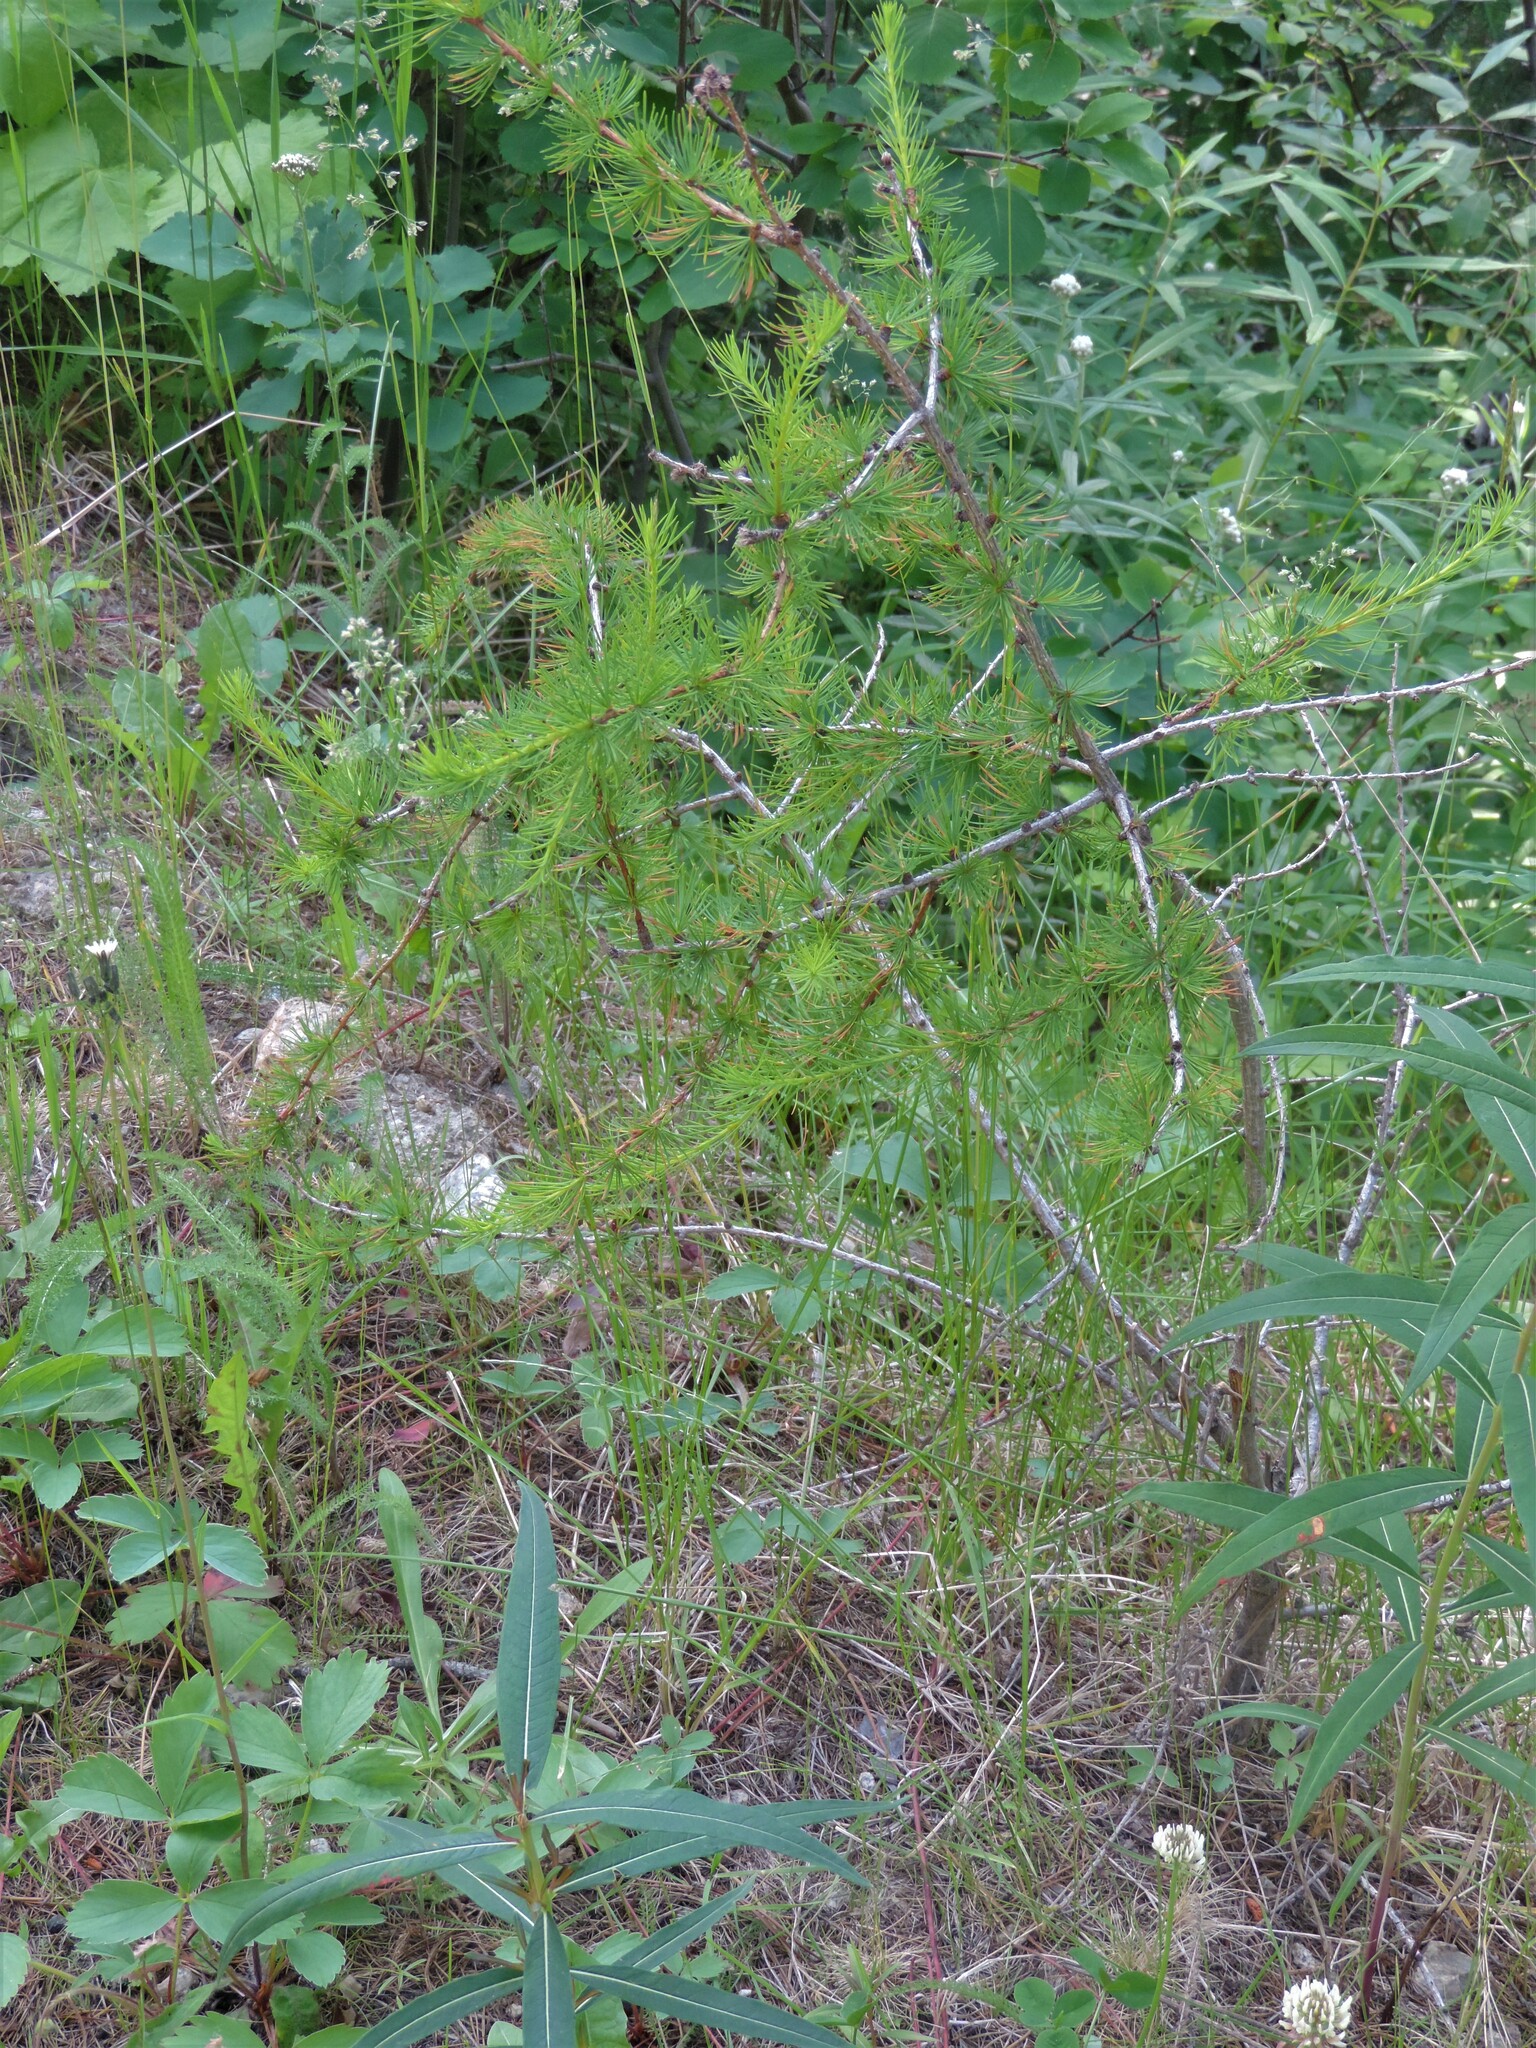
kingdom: Plantae
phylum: Tracheophyta
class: Pinopsida
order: Pinales
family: Pinaceae
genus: Larix
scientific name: Larix occidentalis
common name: Western larch
